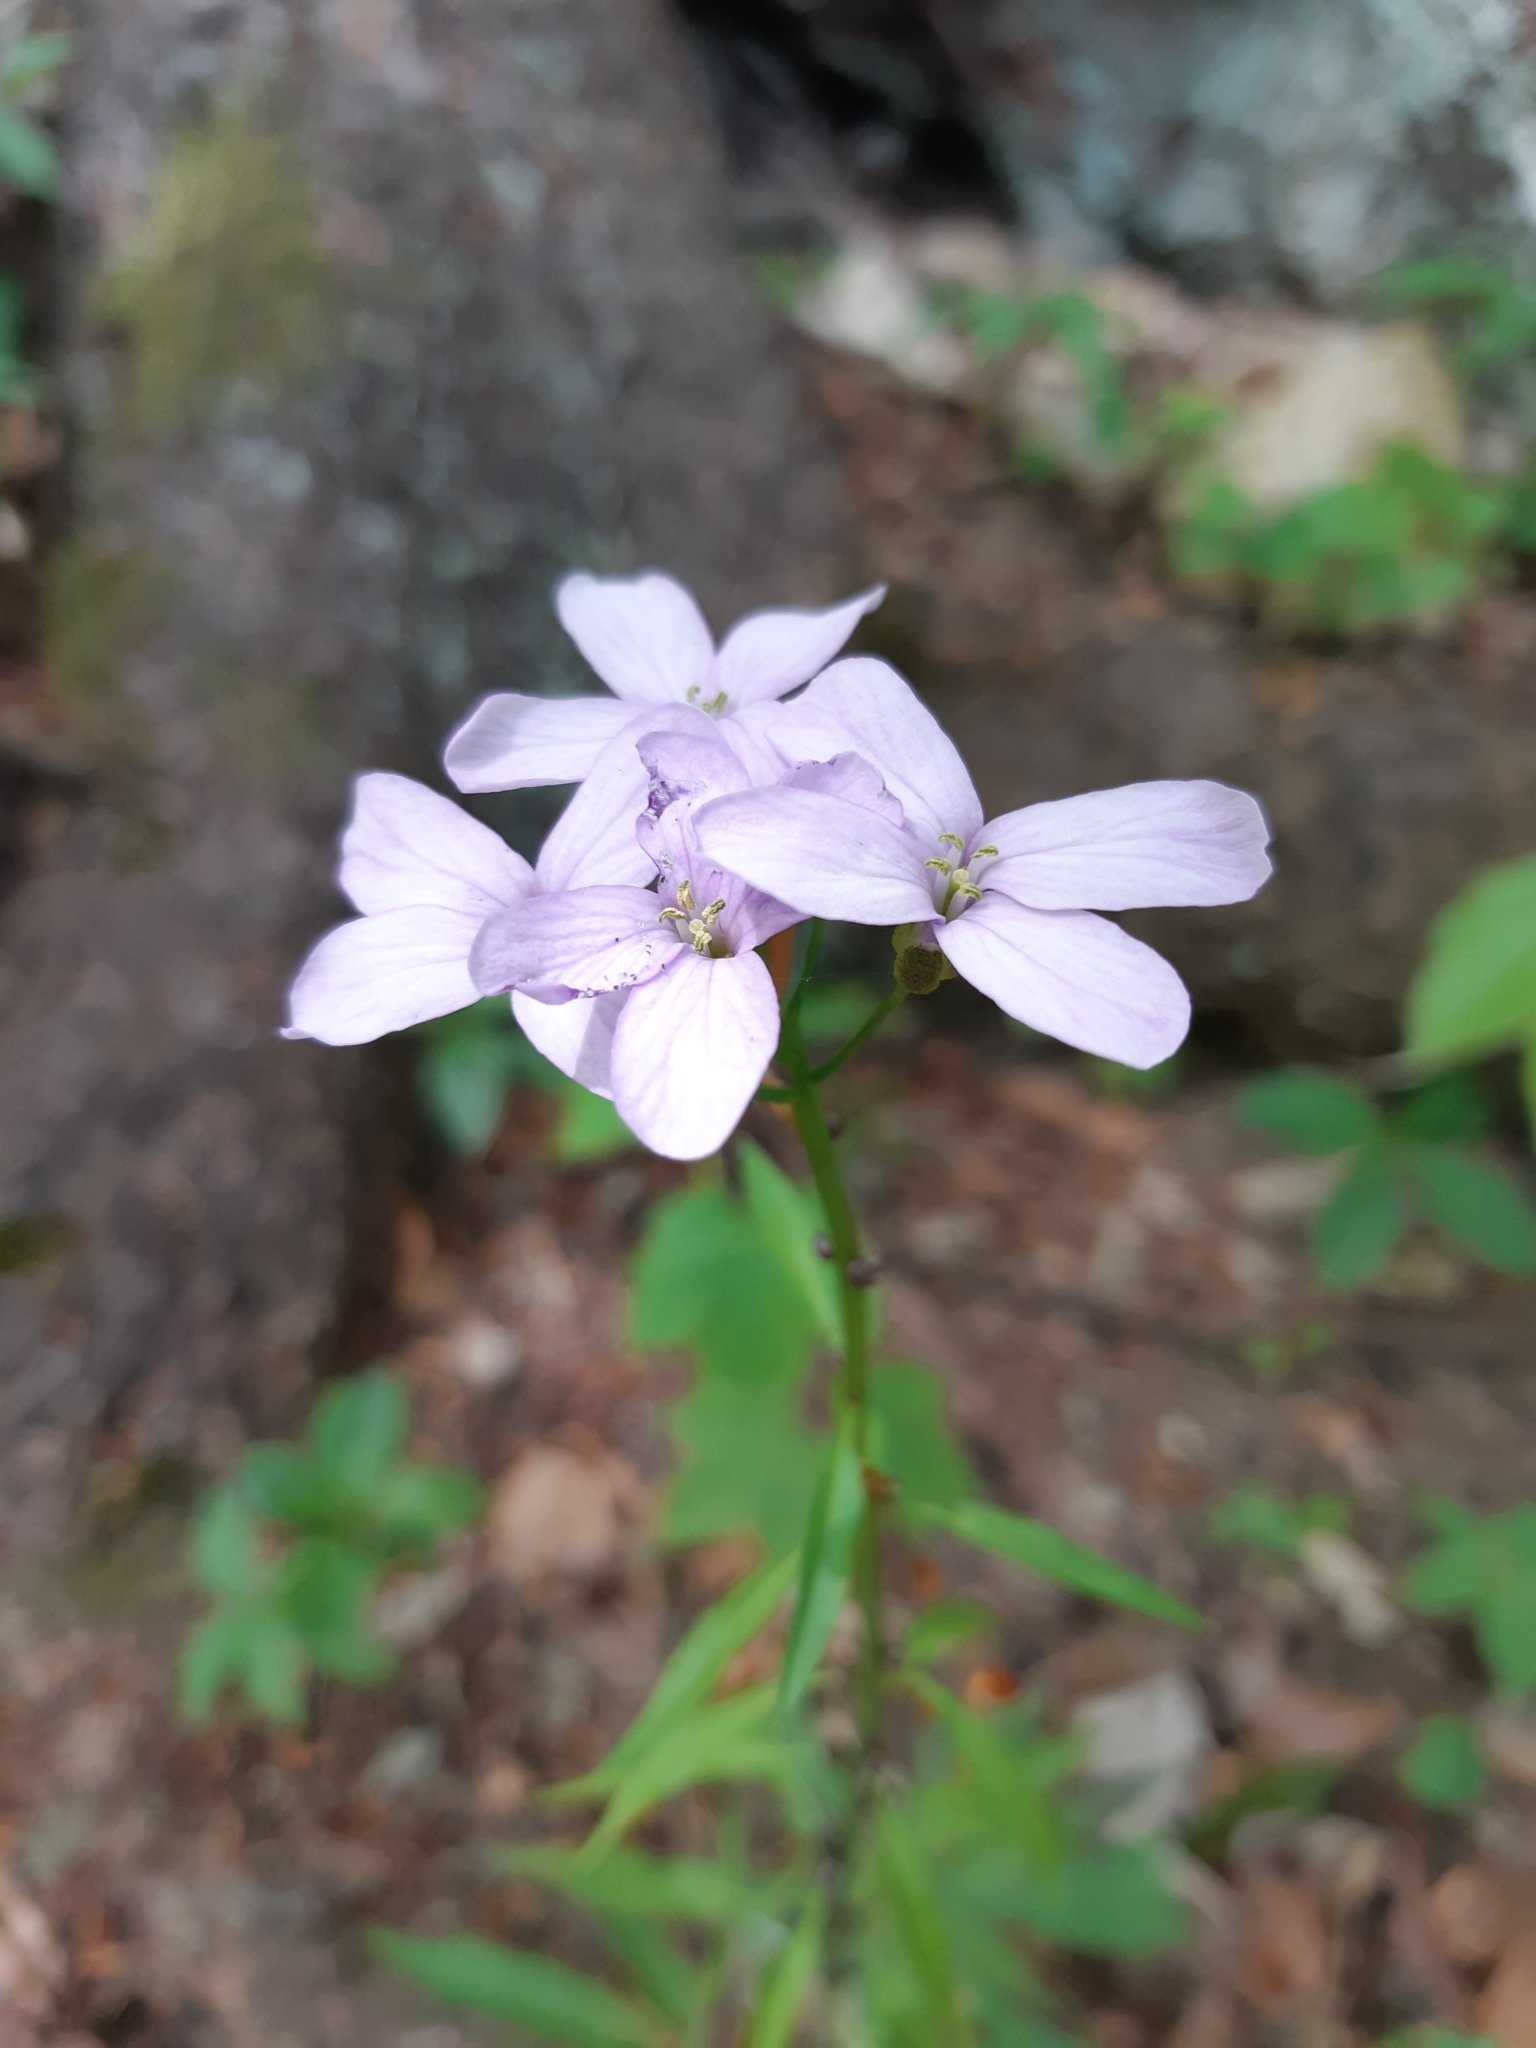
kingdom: Plantae
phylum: Tracheophyta
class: Magnoliopsida
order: Brassicales
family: Brassicaceae
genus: Cardamine
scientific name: Cardamine bulbifera
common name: Coralroot bittercress
